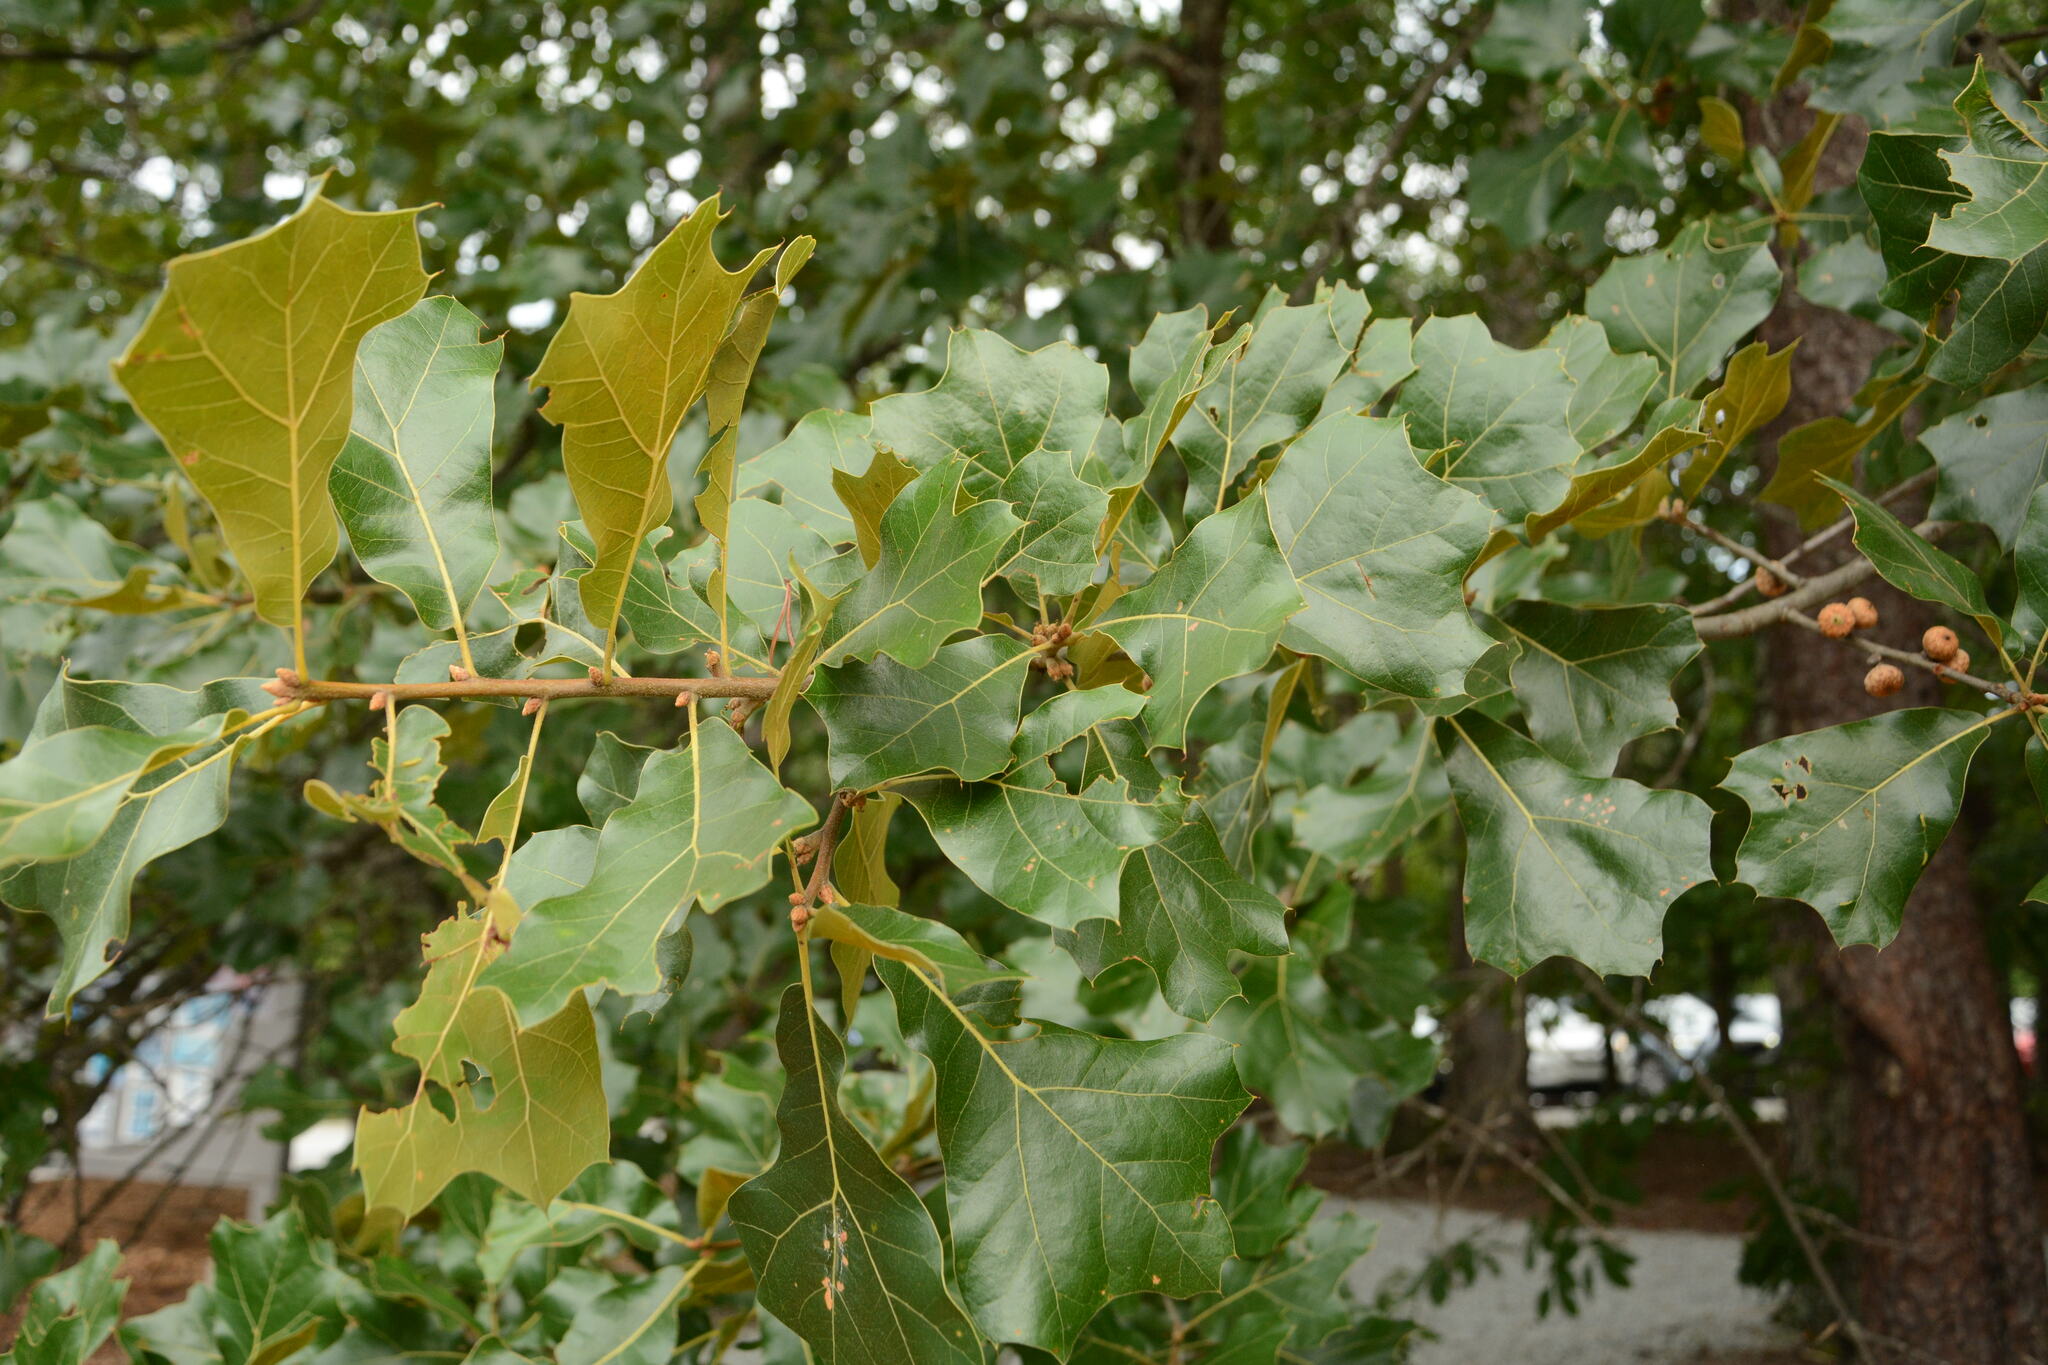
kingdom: Plantae
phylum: Tracheophyta
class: Magnoliopsida
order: Fagales
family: Fagaceae
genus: Quercus
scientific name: Quercus marilandica
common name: Blackjack oak
